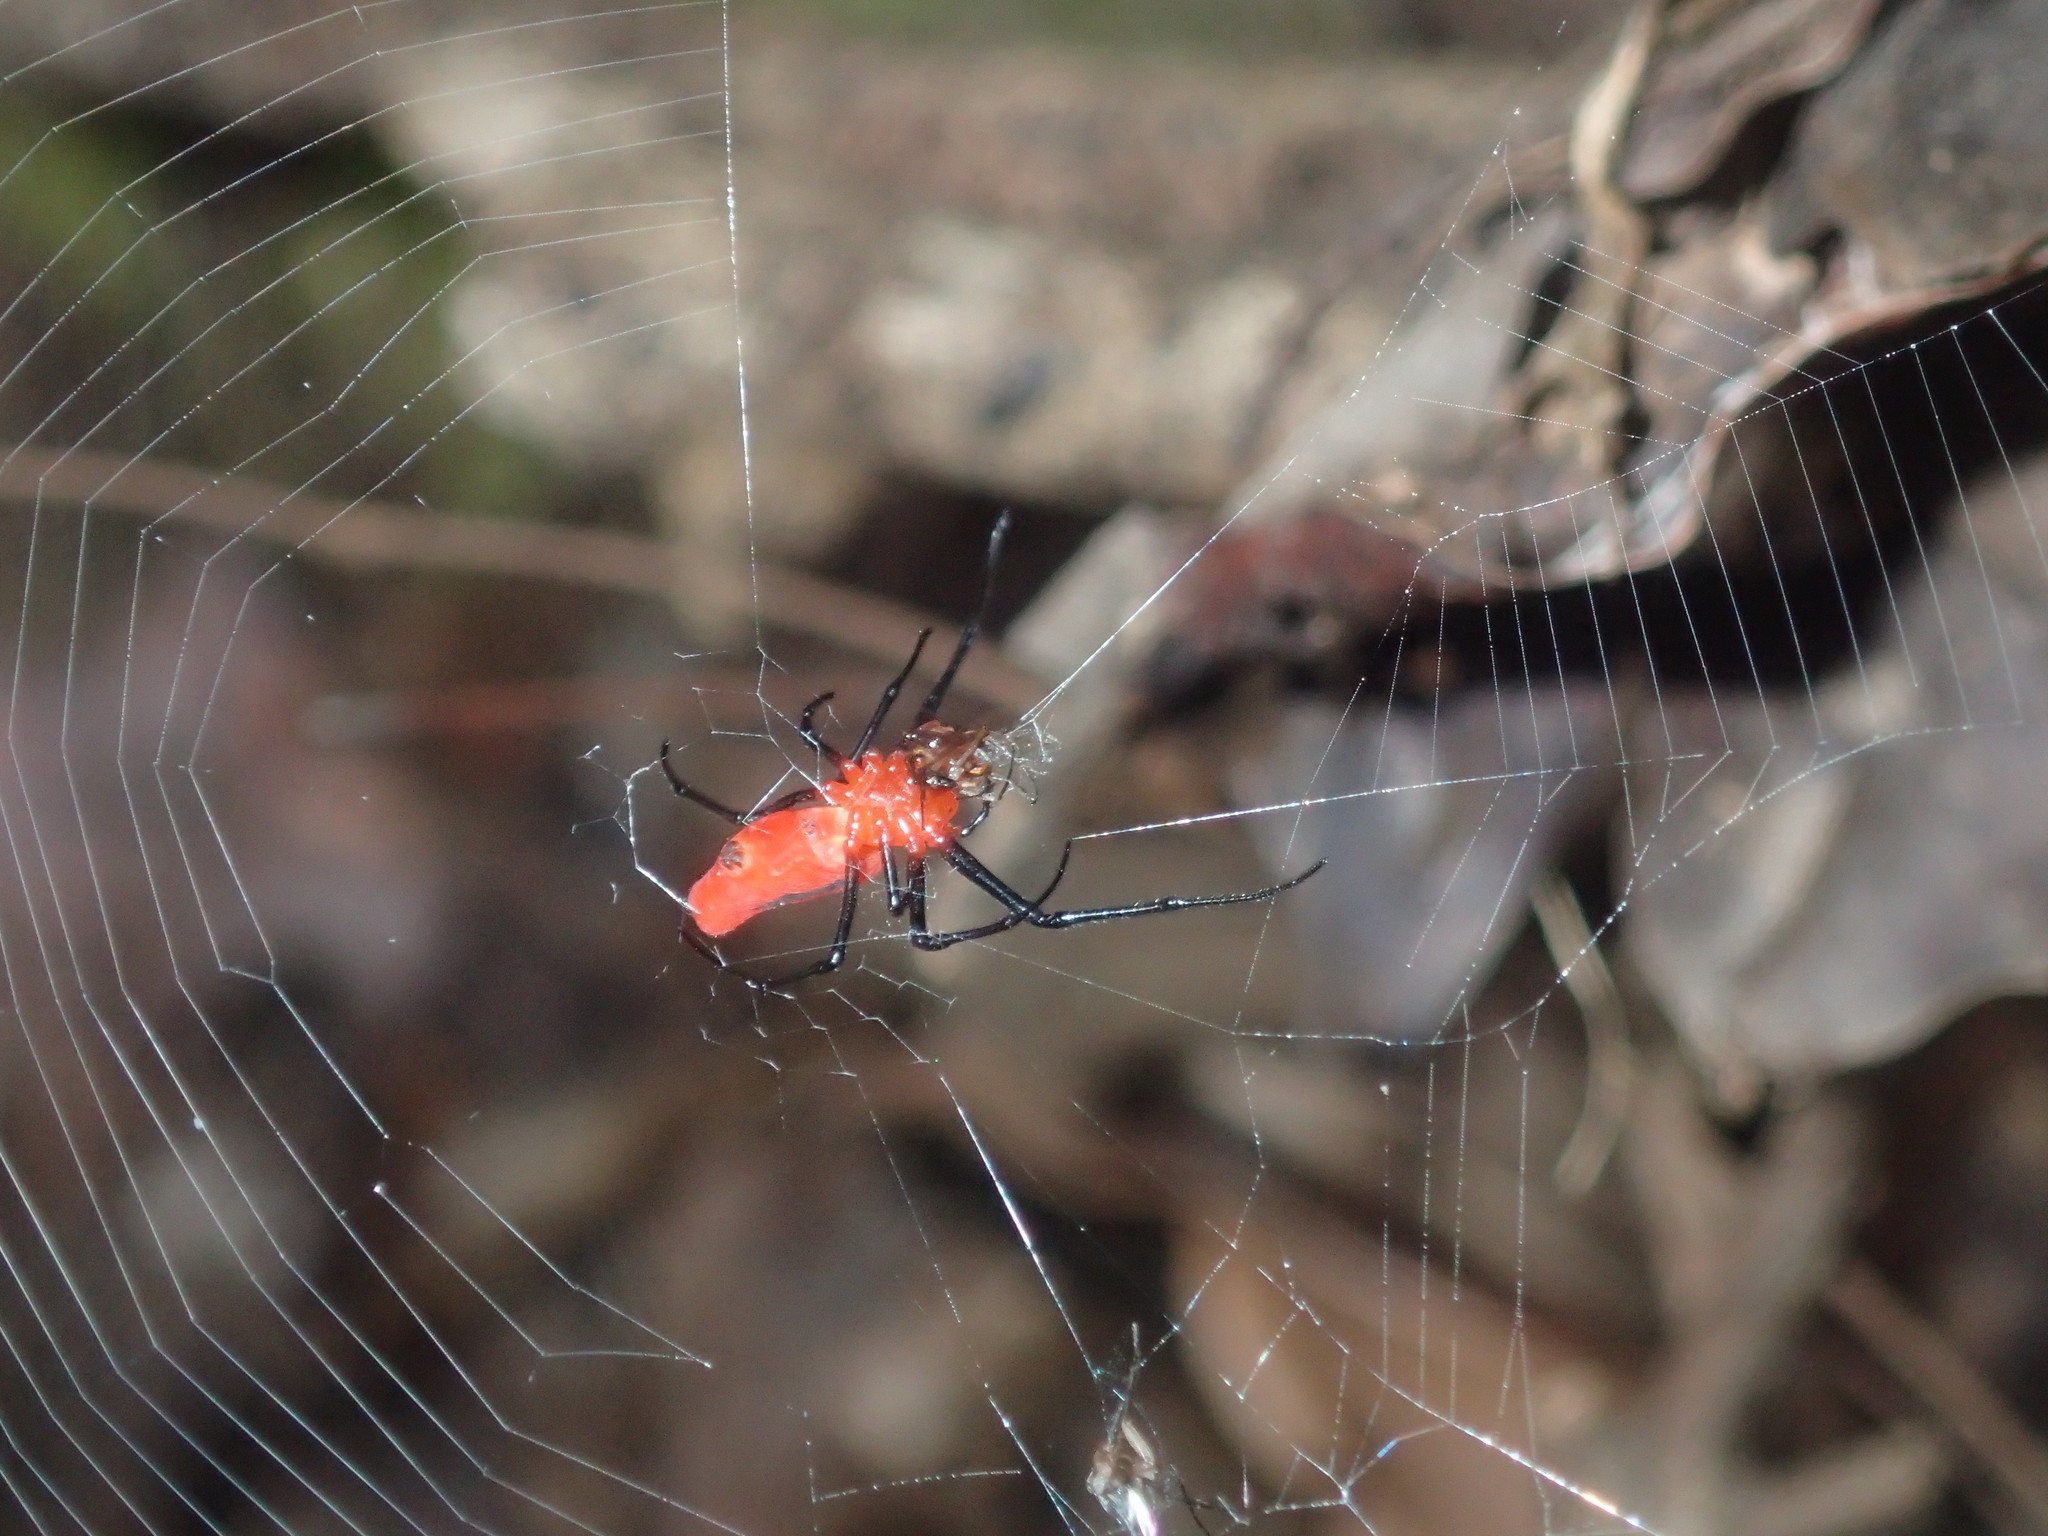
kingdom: Animalia
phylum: Arthropoda
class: Arachnida
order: Araneae
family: Tetragnathidae
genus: Leucauge
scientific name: Leucauge licina
